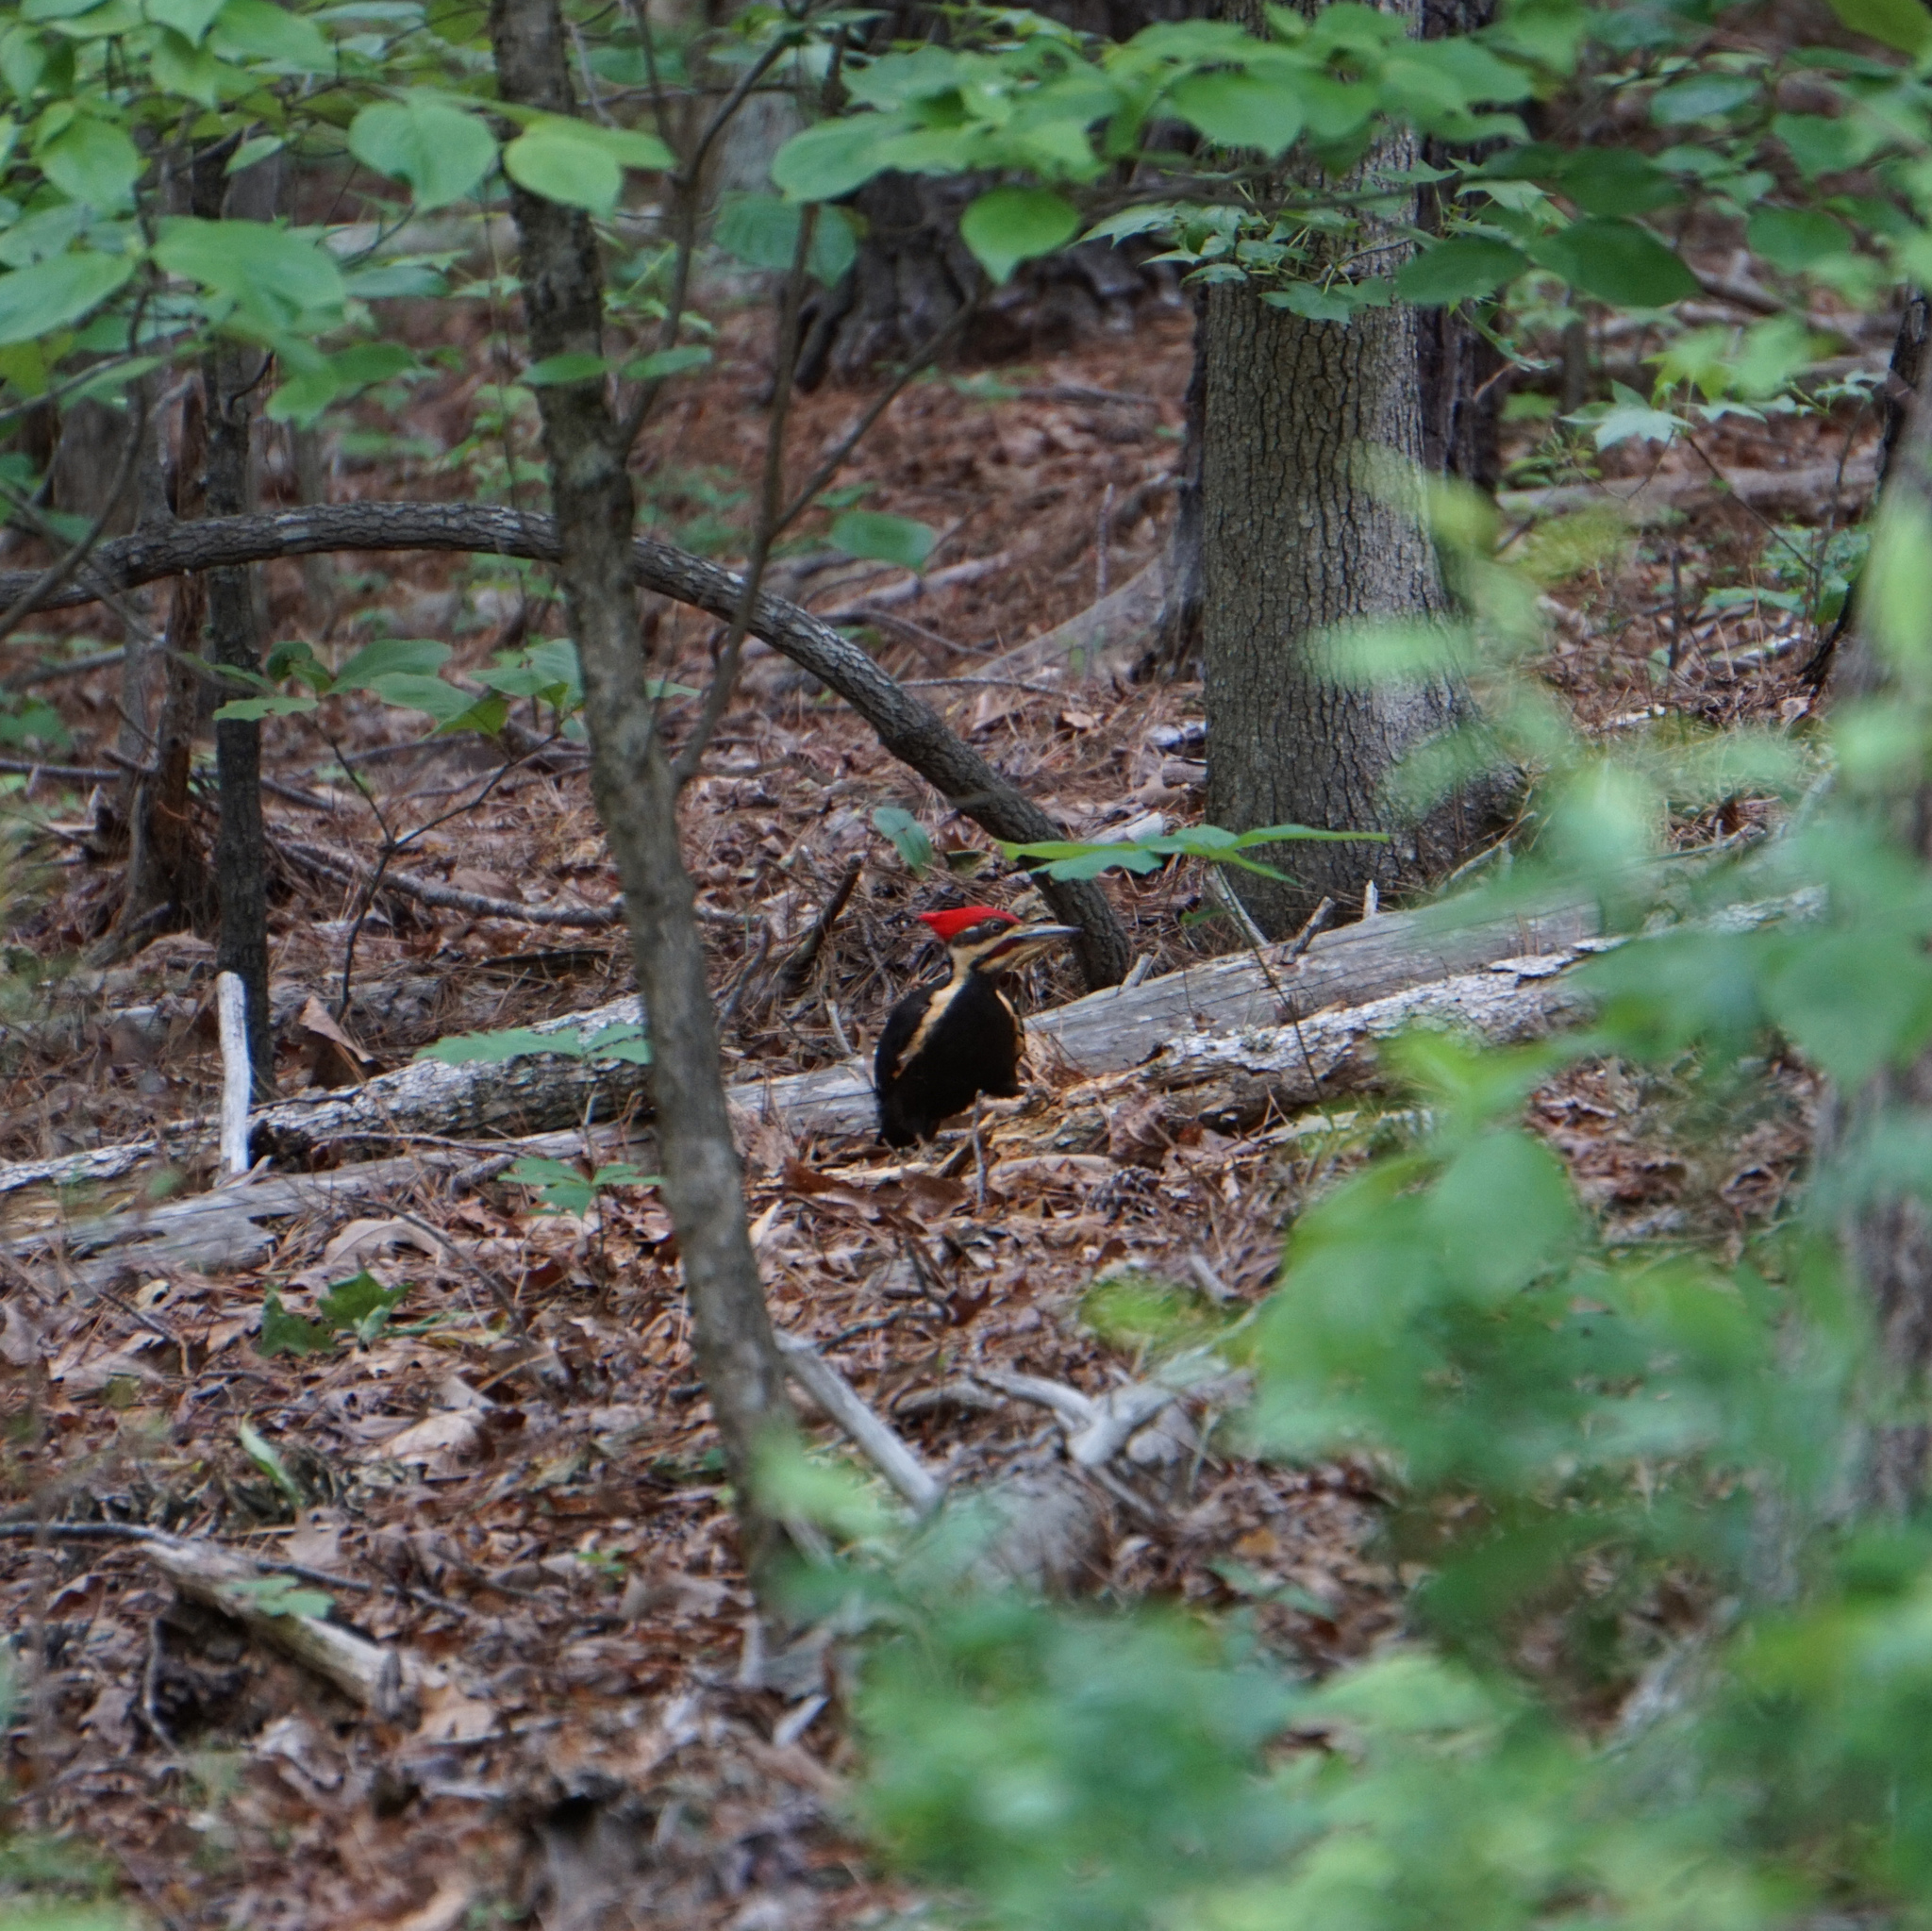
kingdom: Animalia
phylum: Chordata
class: Aves
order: Piciformes
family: Picidae
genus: Dryocopus
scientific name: Dryocopus pileatus
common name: Pileated woodpecker
